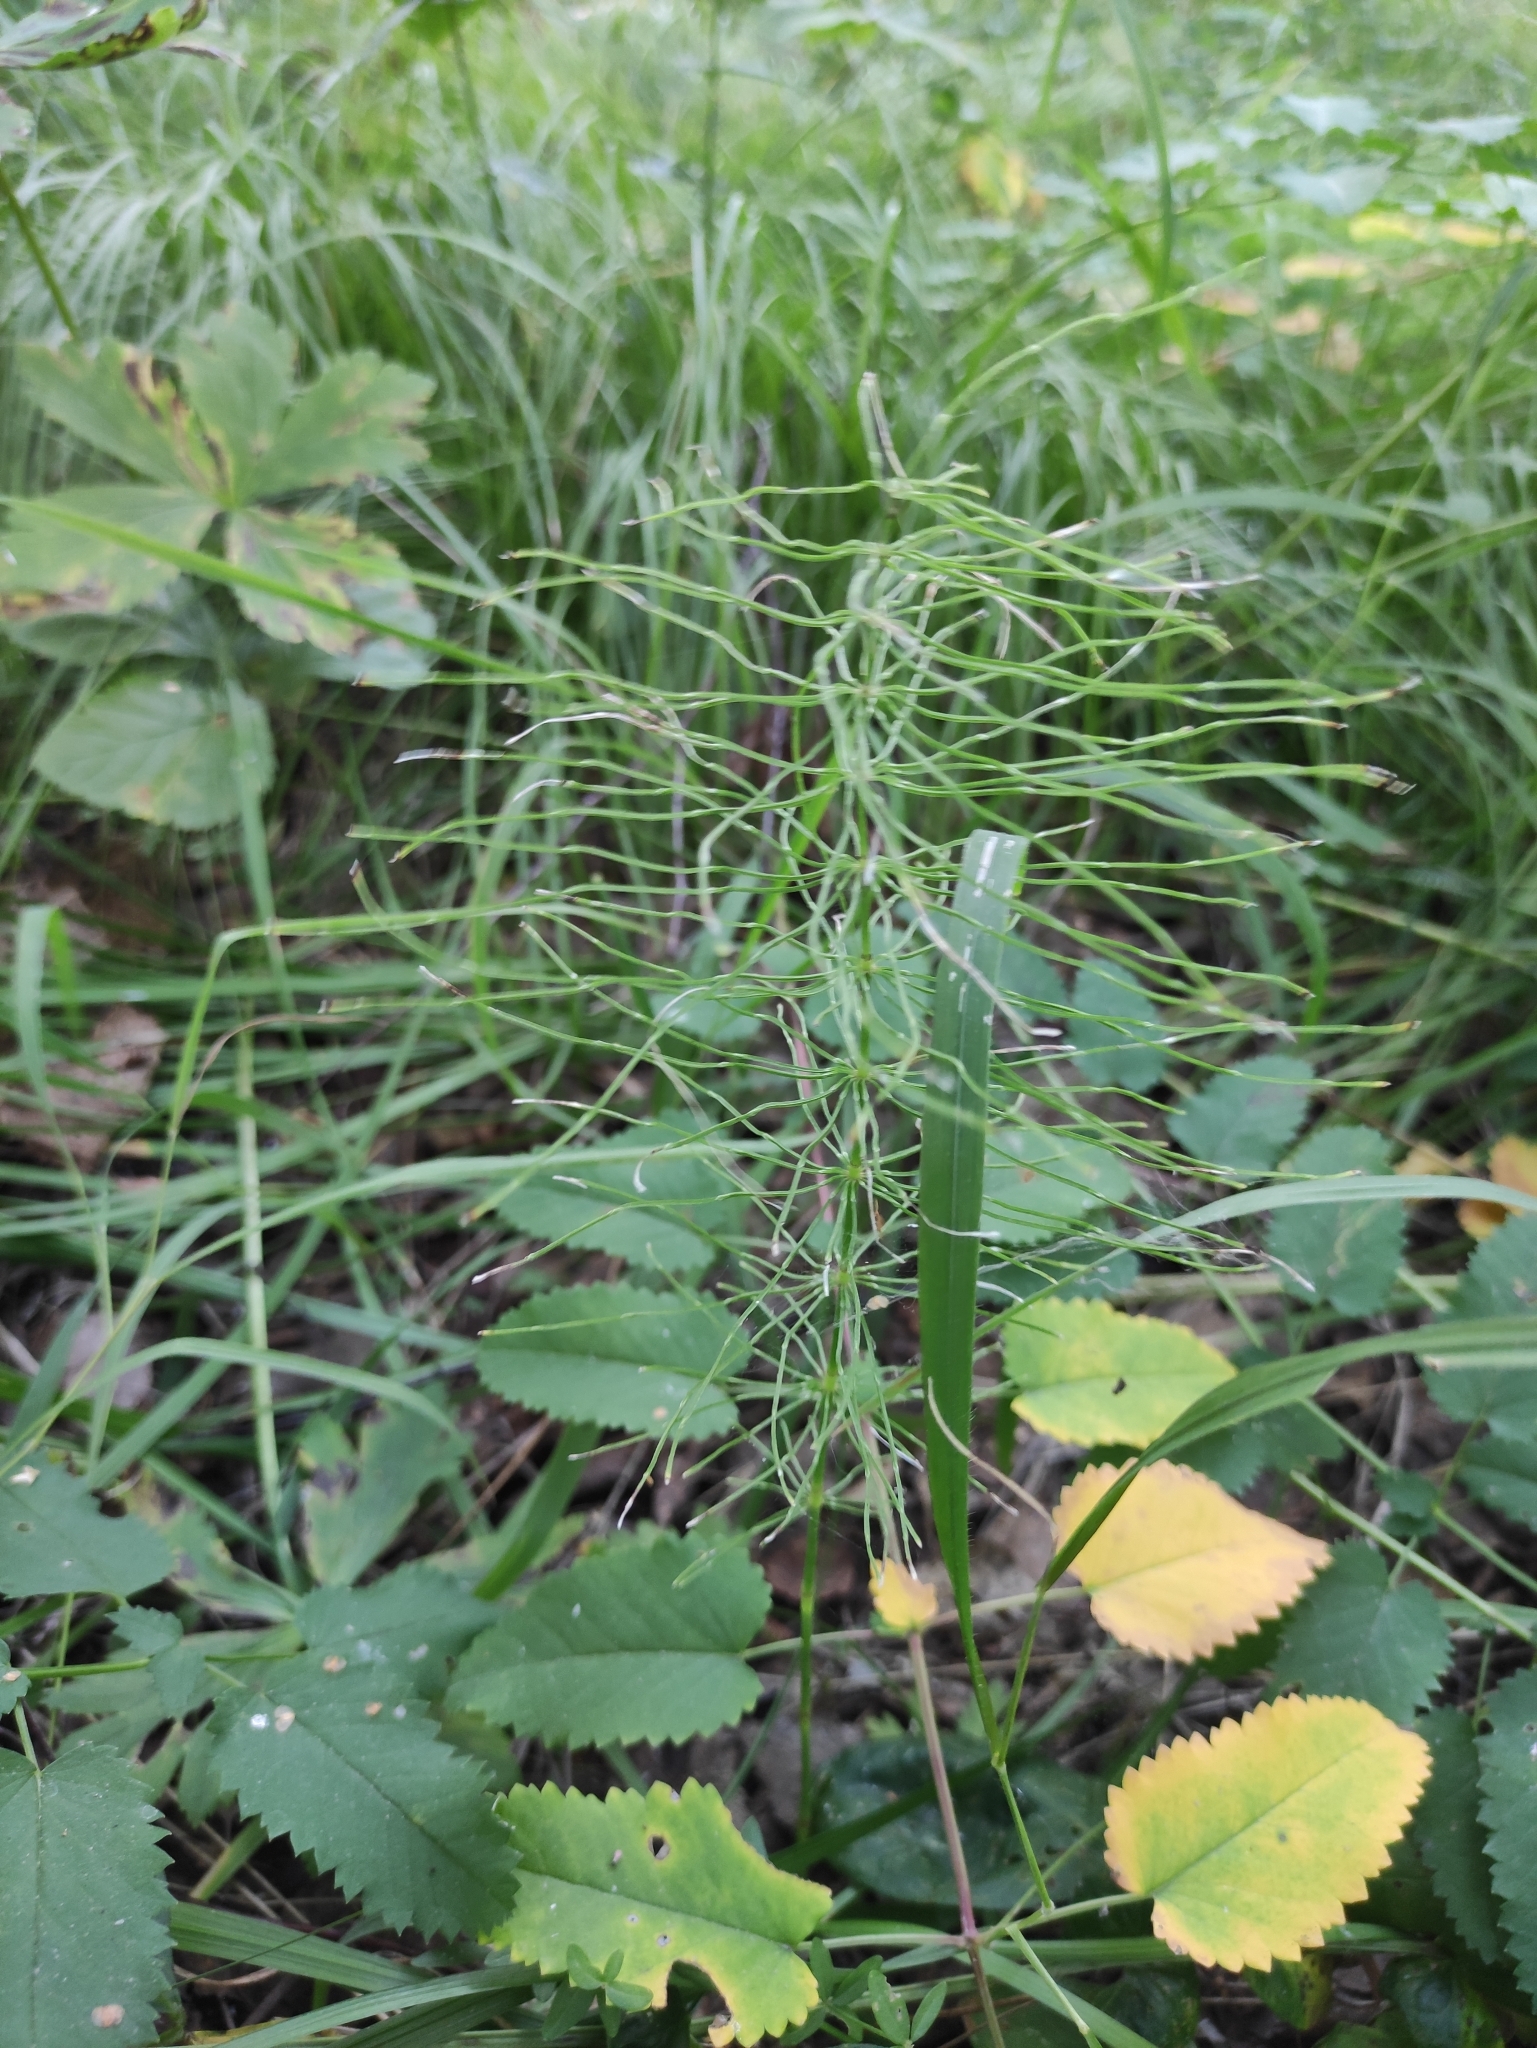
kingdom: Plantae
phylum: Tracheophyta
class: Polypodiopsida
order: Equisetales
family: Equisetaceae
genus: Equisetum
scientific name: Equisetum pratense
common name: Meadow horsetail
